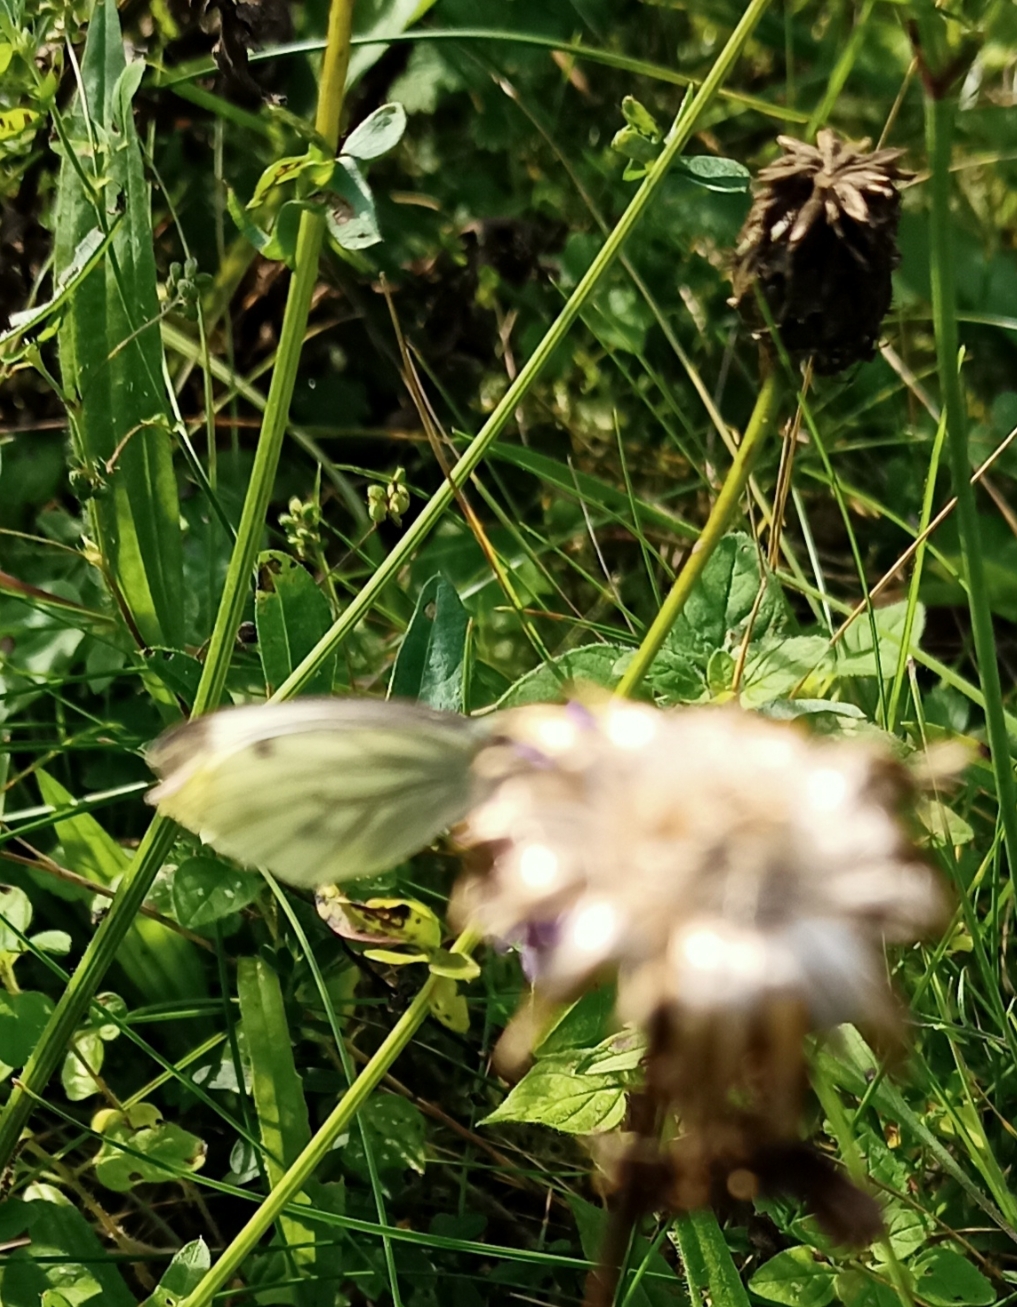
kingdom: Animalia
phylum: Arthropoda
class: Insecta
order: Lepidoptera
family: Pieridae
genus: Pieris
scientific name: Pieris napi
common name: Green-veined white
